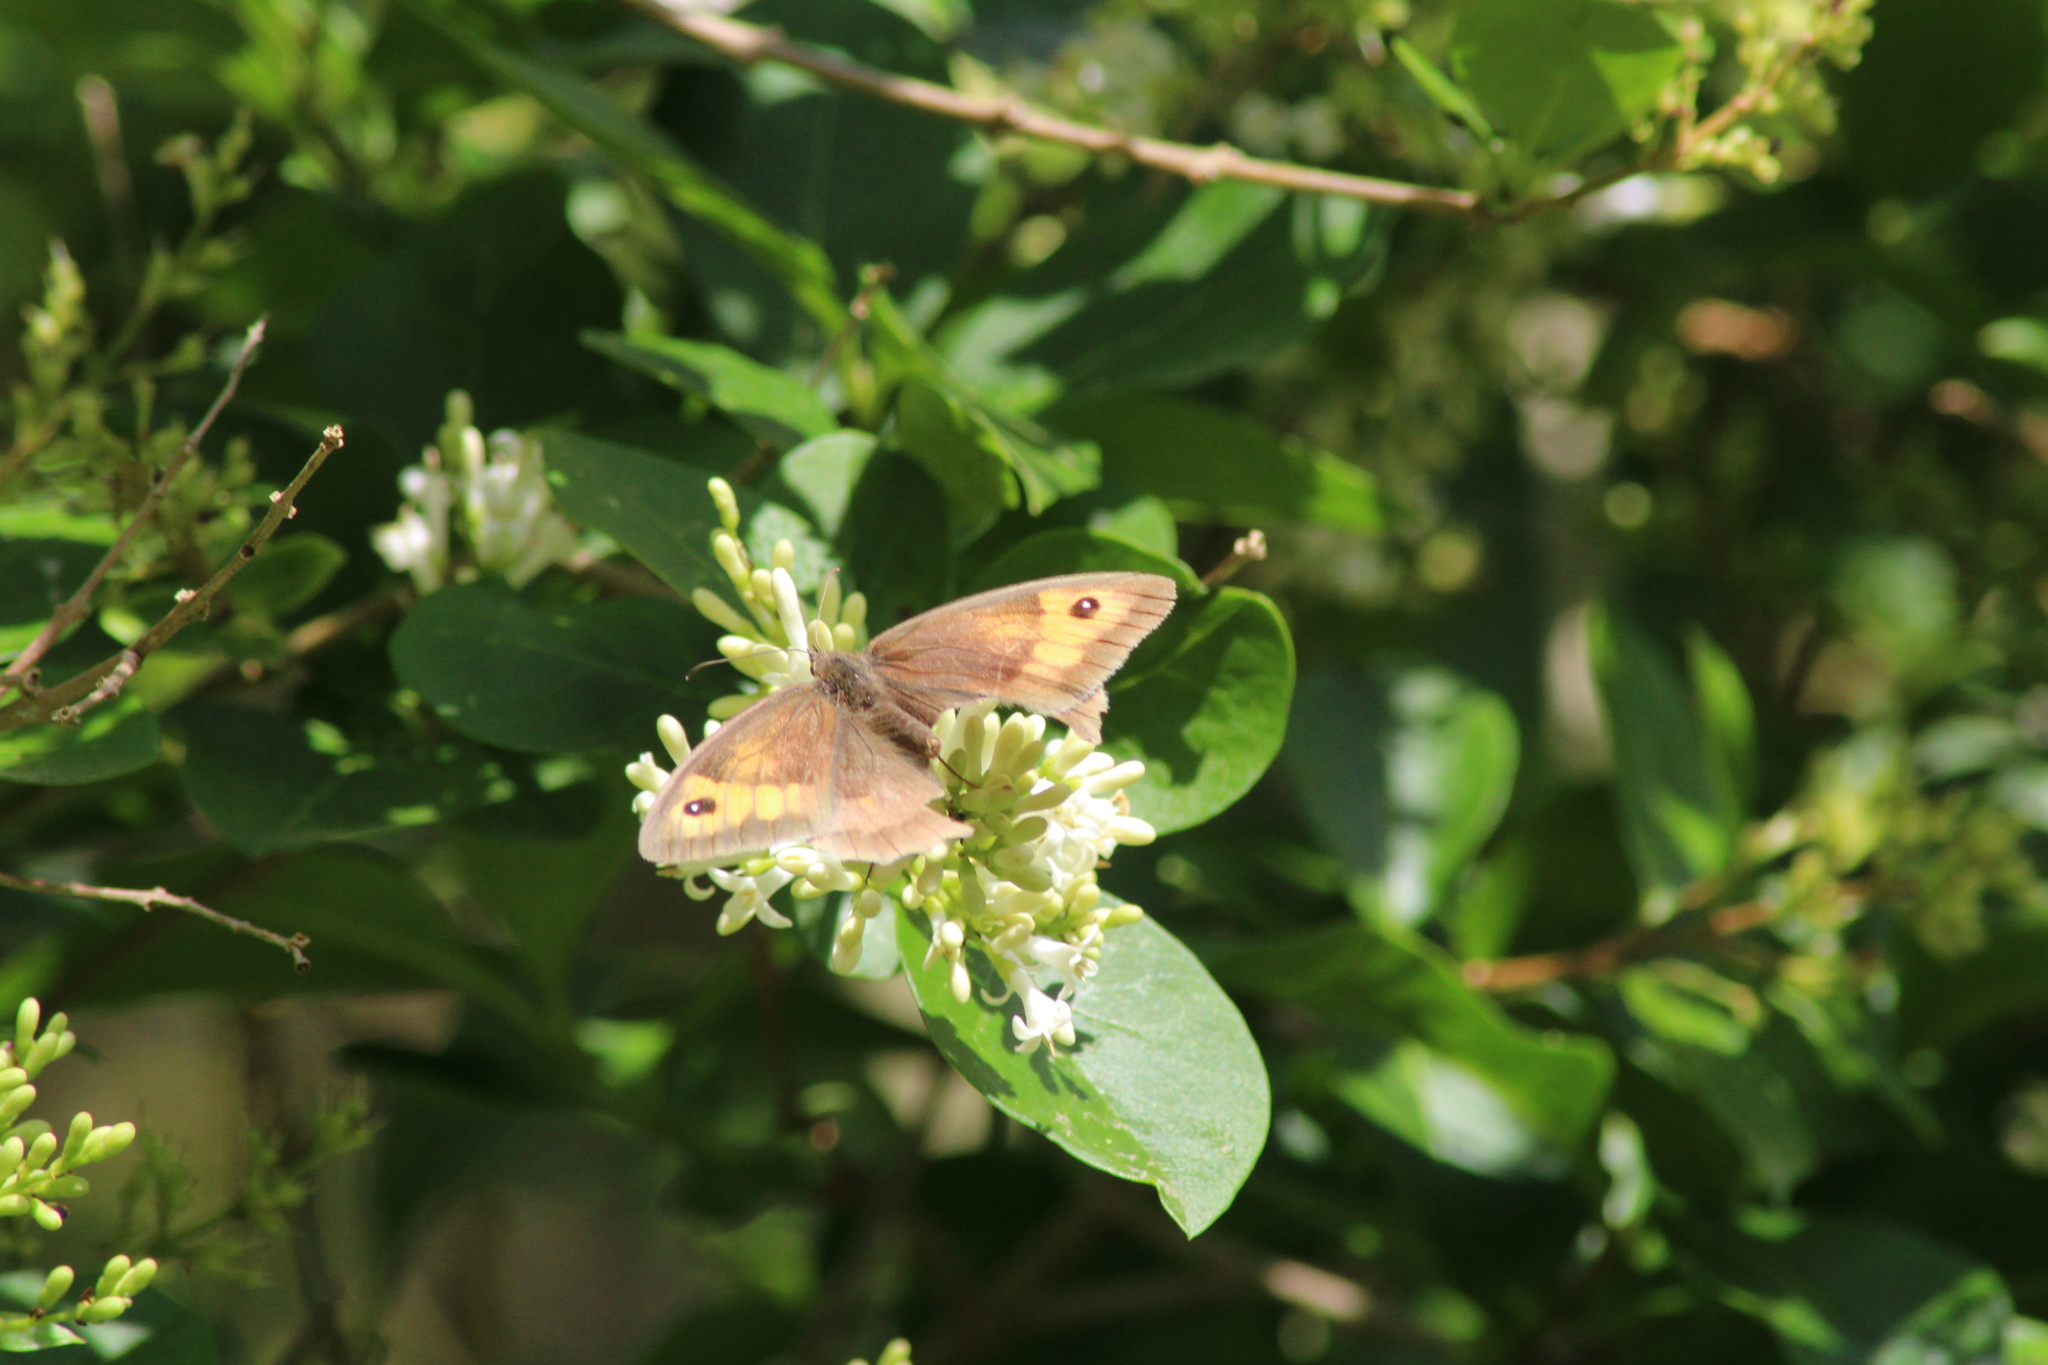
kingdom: Animalia
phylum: Arthropoda
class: Insecta
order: Lepidoptera
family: Nymphalidae
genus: Maniola
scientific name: Maniola jurtina
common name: Meadow brown
